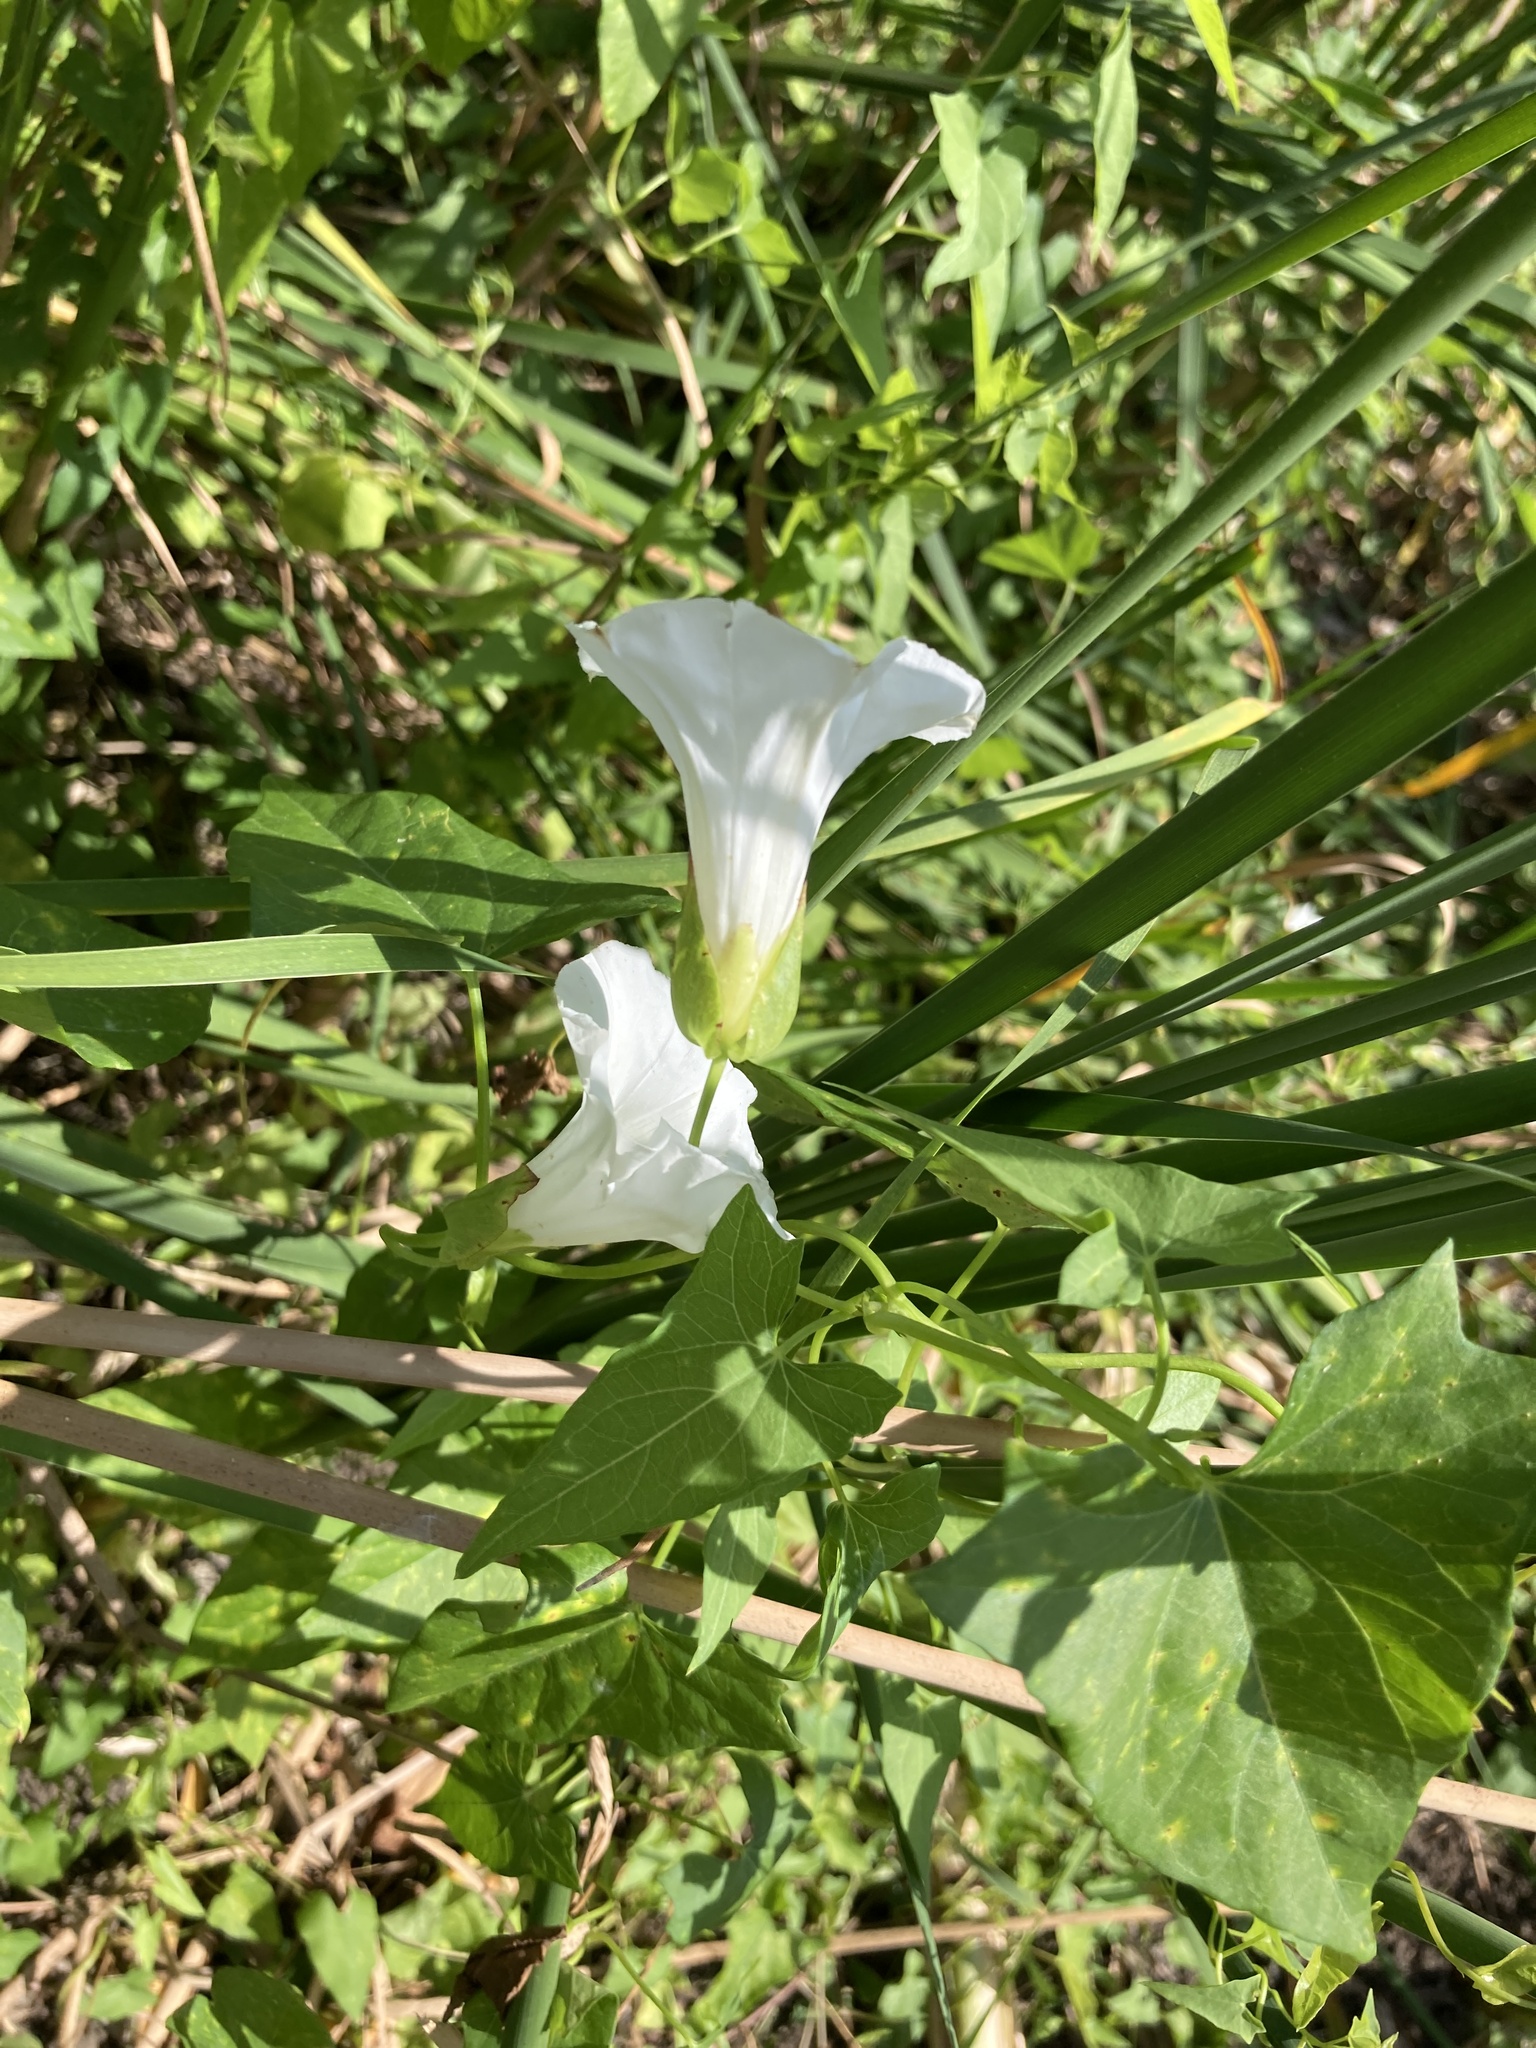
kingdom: Plantae
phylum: Tracheophyta
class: Magnoliopsida
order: Solanales
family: Convolvulaceae
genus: Calystegia
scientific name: Calystegia sepium
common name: Hedge bindweed
